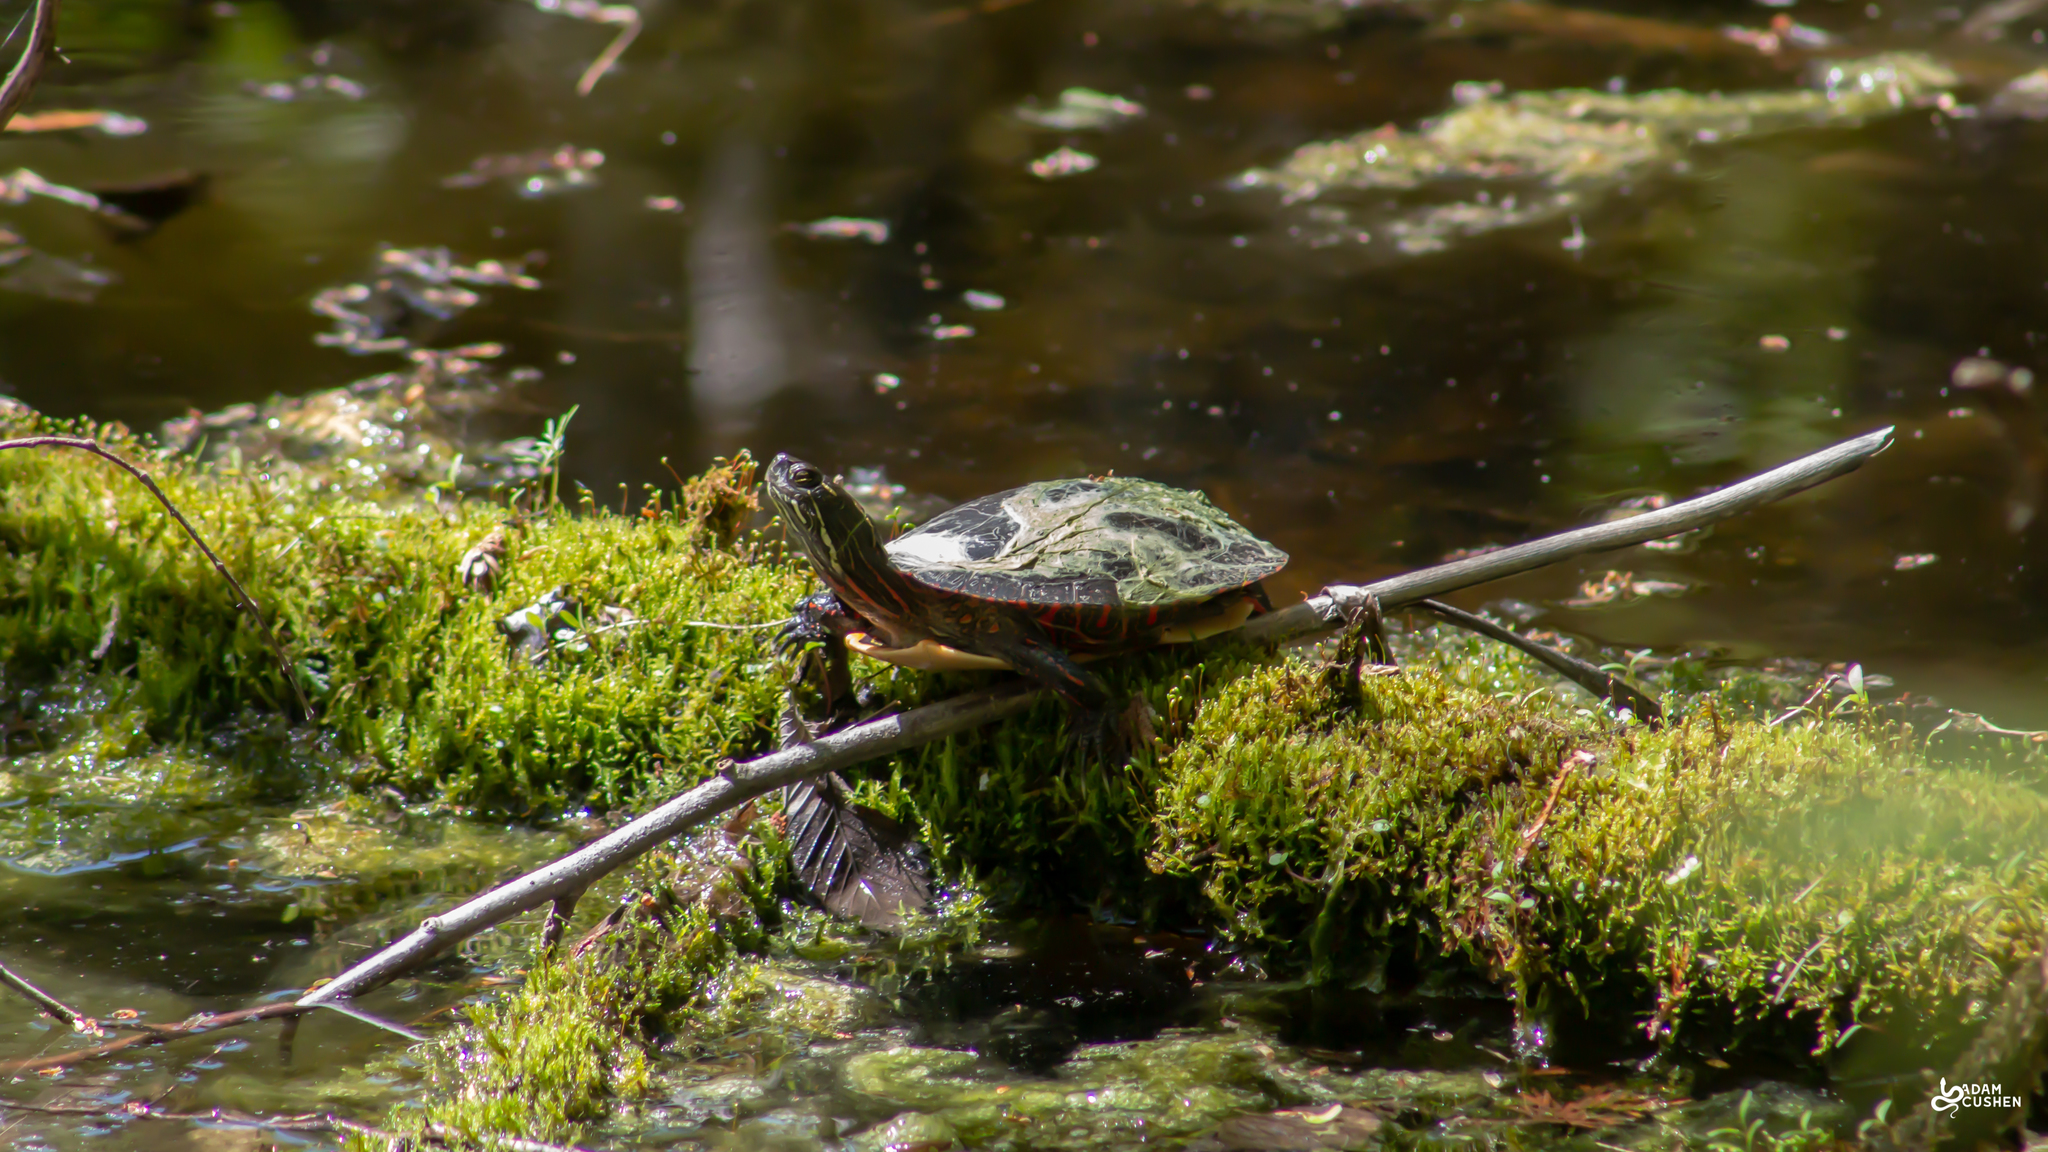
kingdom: Animalia
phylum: Chordata
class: Testudines
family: Emydidae
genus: Chrysemys
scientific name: Chrysemys picta
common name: Painted turtle
